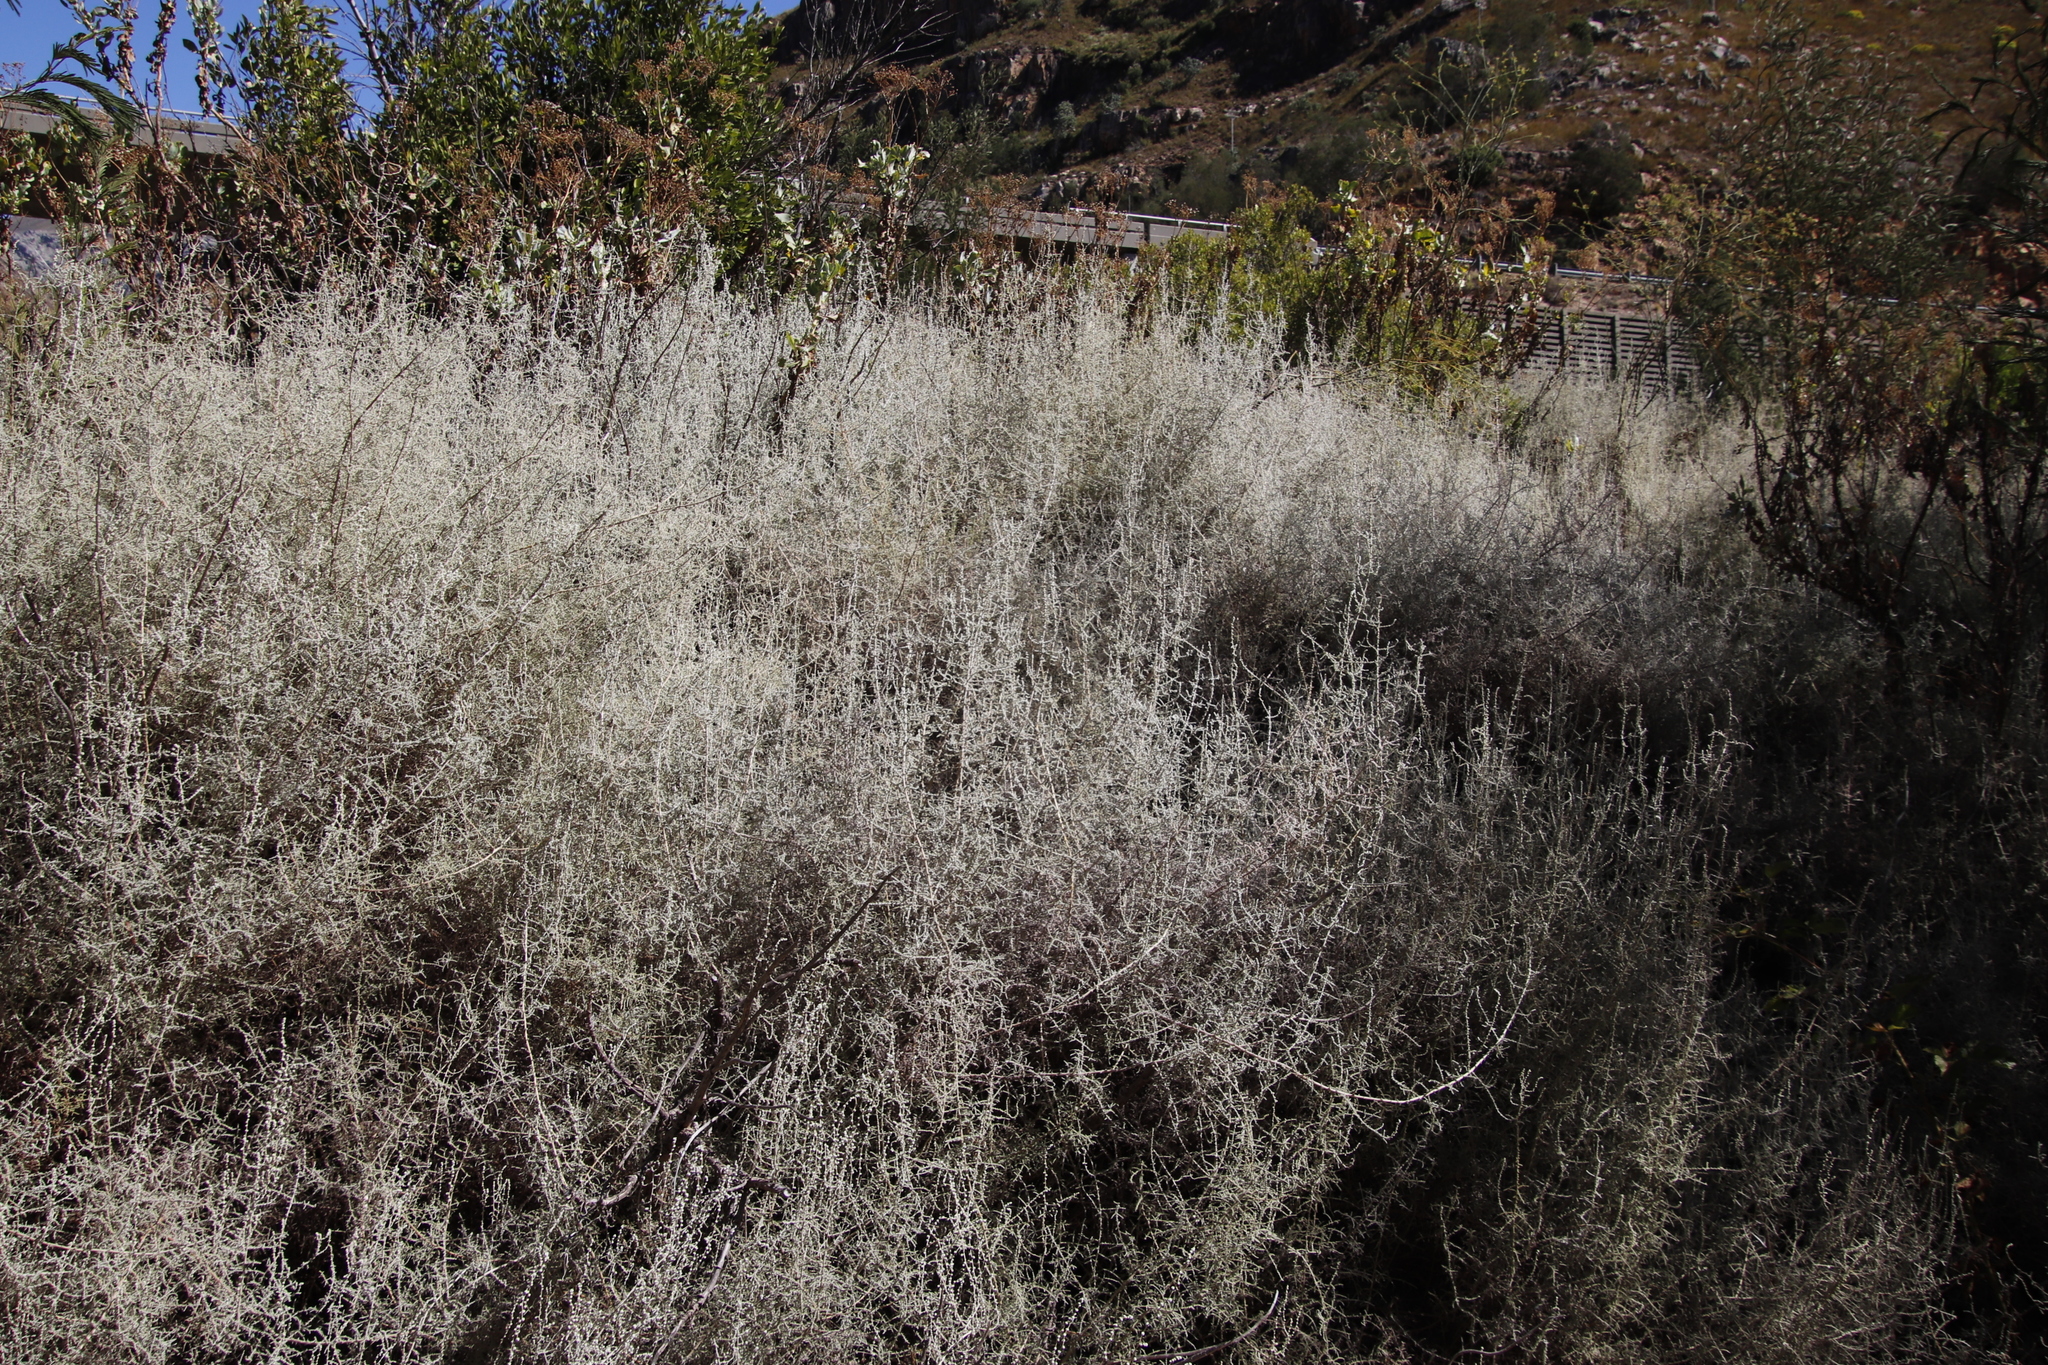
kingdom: Plantae
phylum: Tracheophyta
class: Magnoliopsida
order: Asterales
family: Asteraceae
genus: Seriphium
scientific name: Seriphium plumosum
